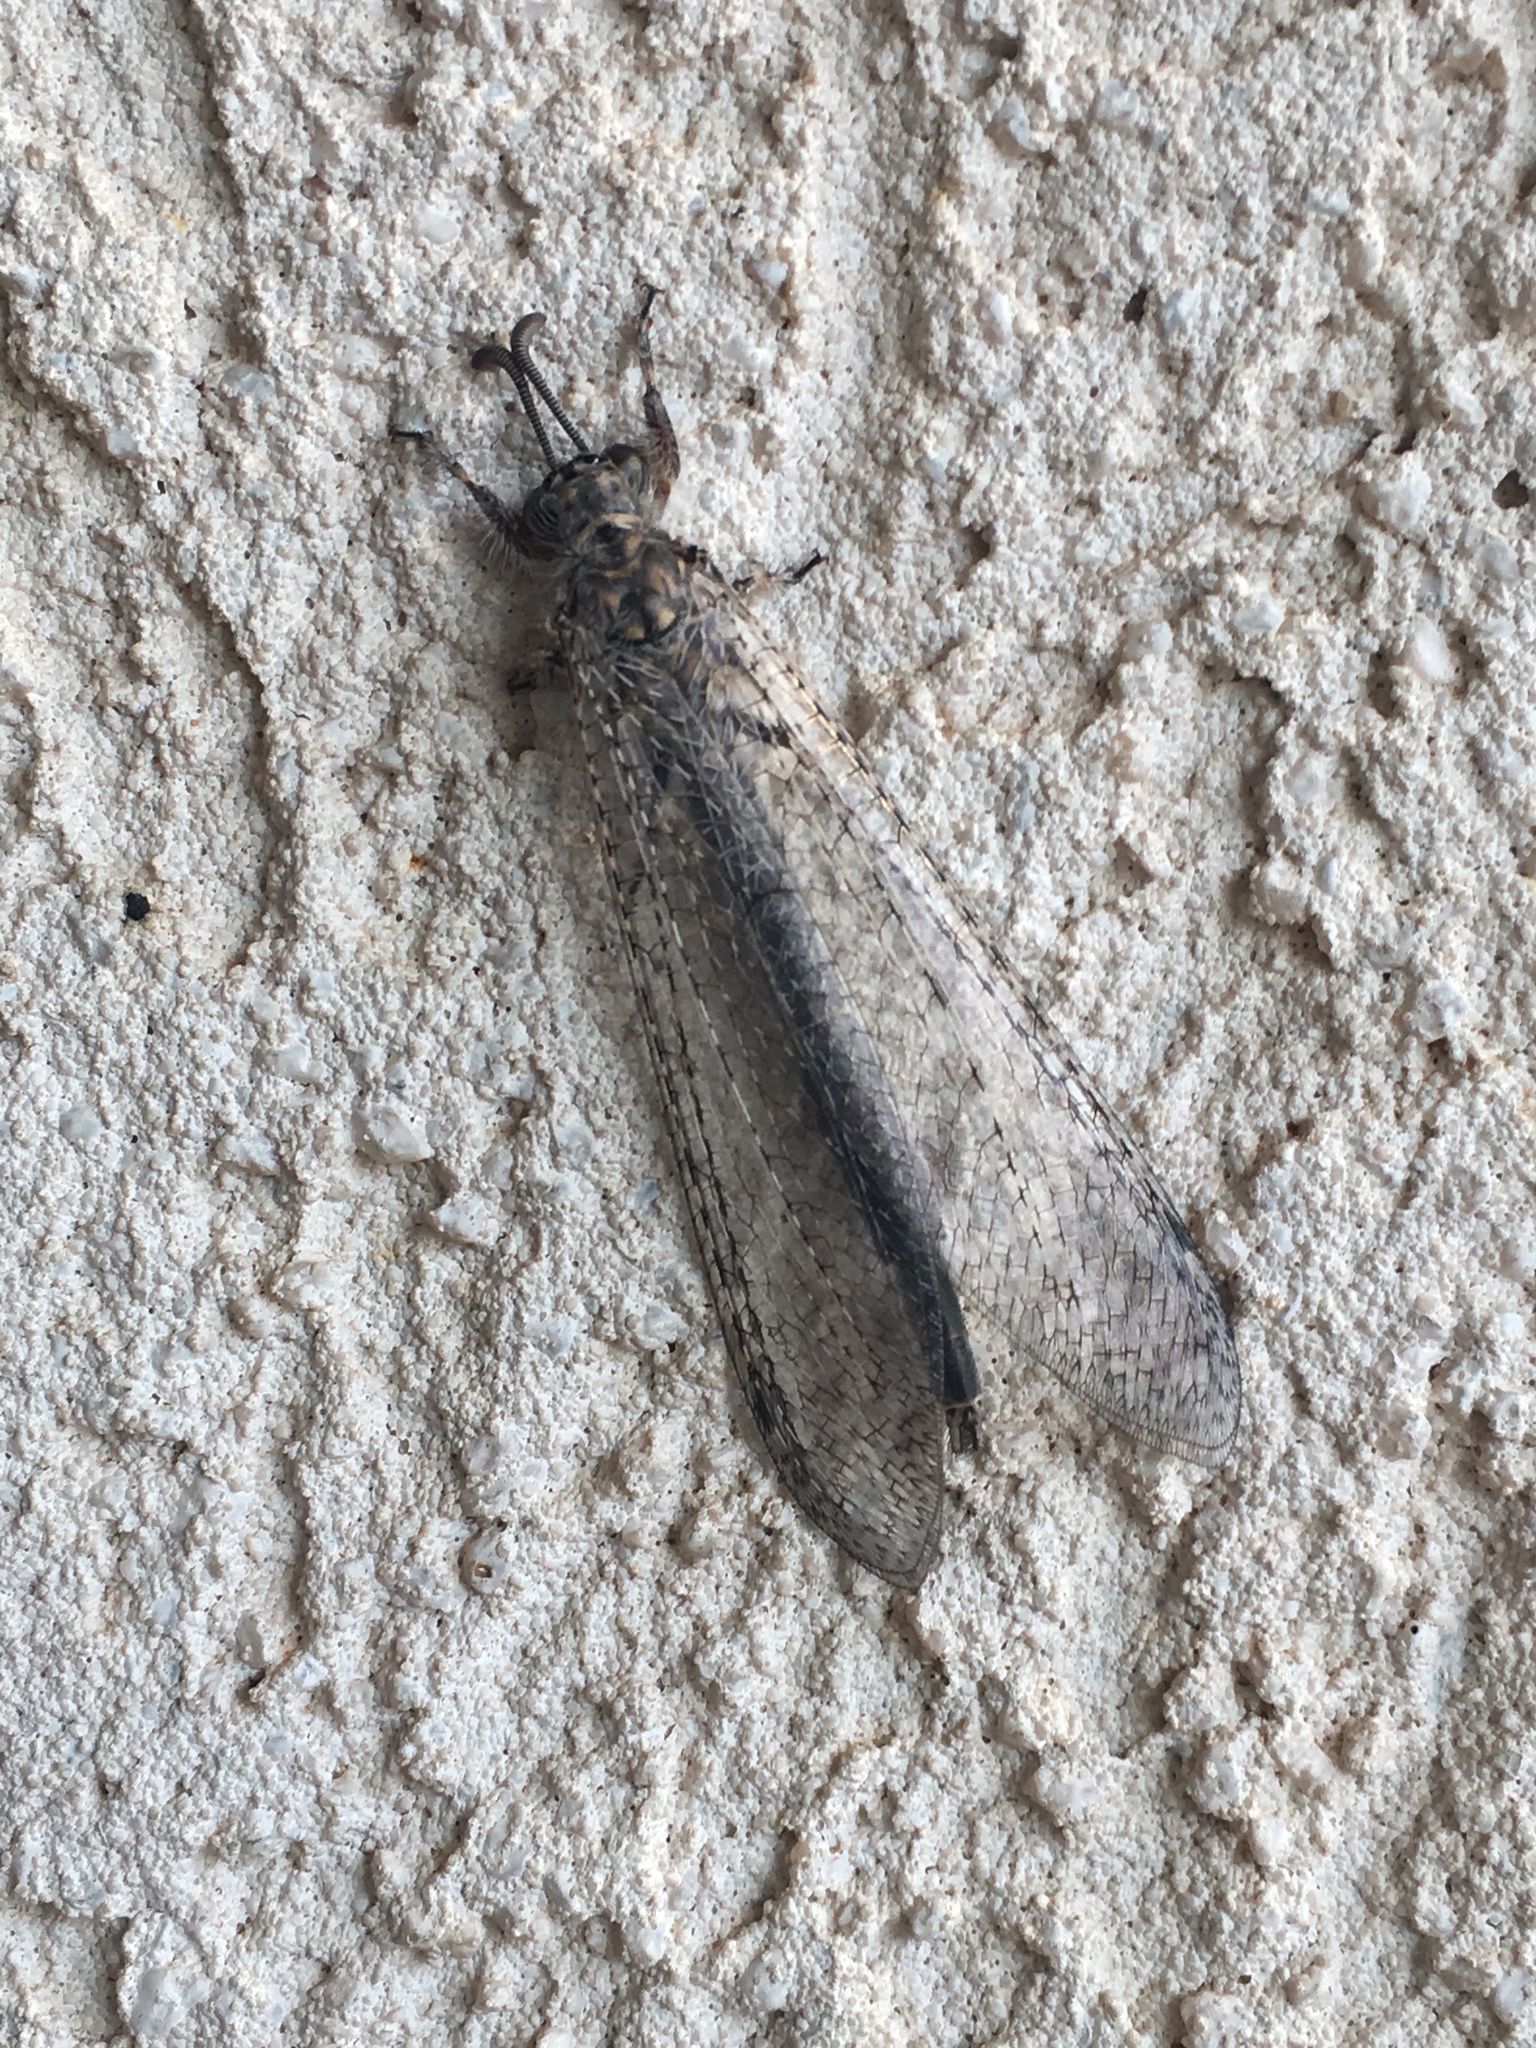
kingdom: Animalia
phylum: Arthropoda
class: Insecta
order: Neuroptera
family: Myrmeleontidae
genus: Vella
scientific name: Vella fallax
